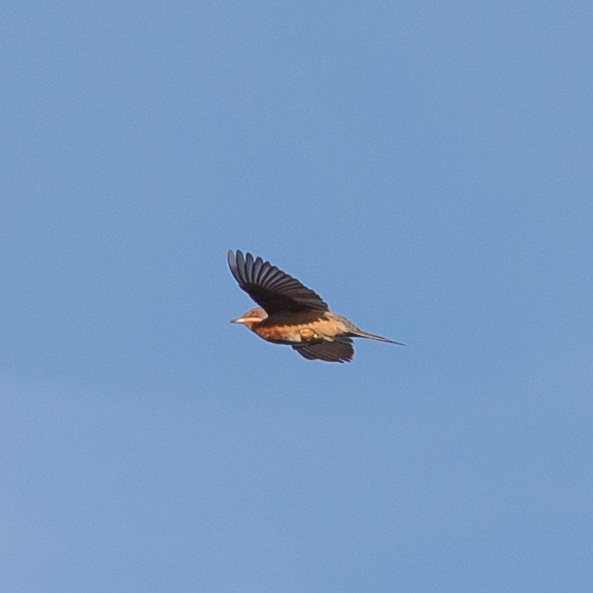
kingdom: Animalia
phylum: Chordata
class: Aves
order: Passeriformes
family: Sylviidae
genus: Curruca
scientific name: Curruca iberiae
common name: Western subalpine warbler
